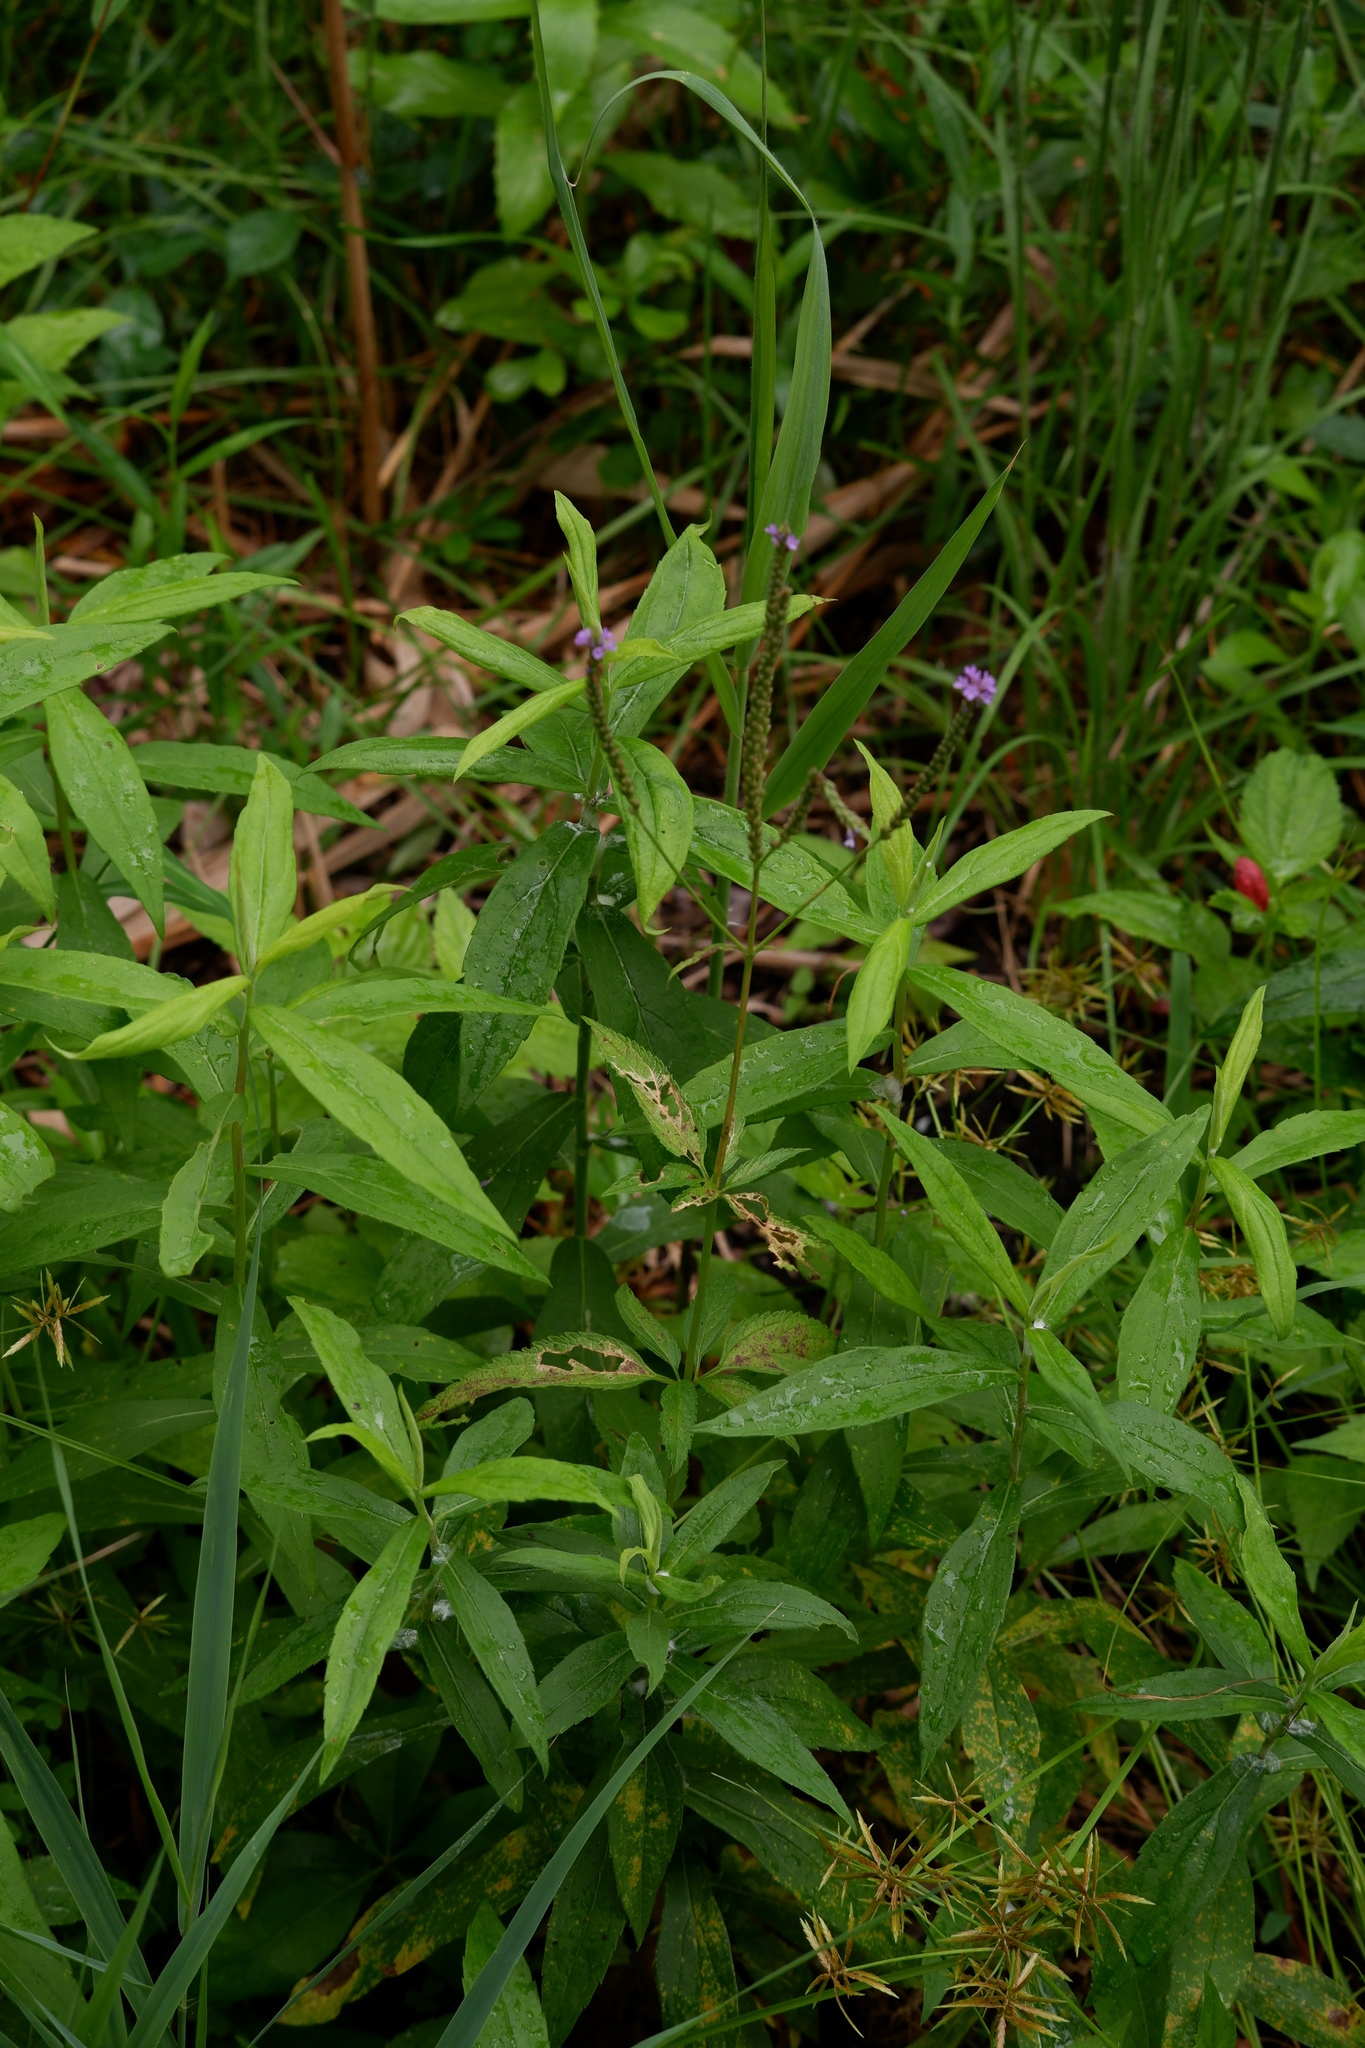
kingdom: Plantae
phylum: Tracheophyta
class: Magnoliopsida
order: Lamiales
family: Verbenaceae
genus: Verbena
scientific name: Verbena hastata
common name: American blue vervain
